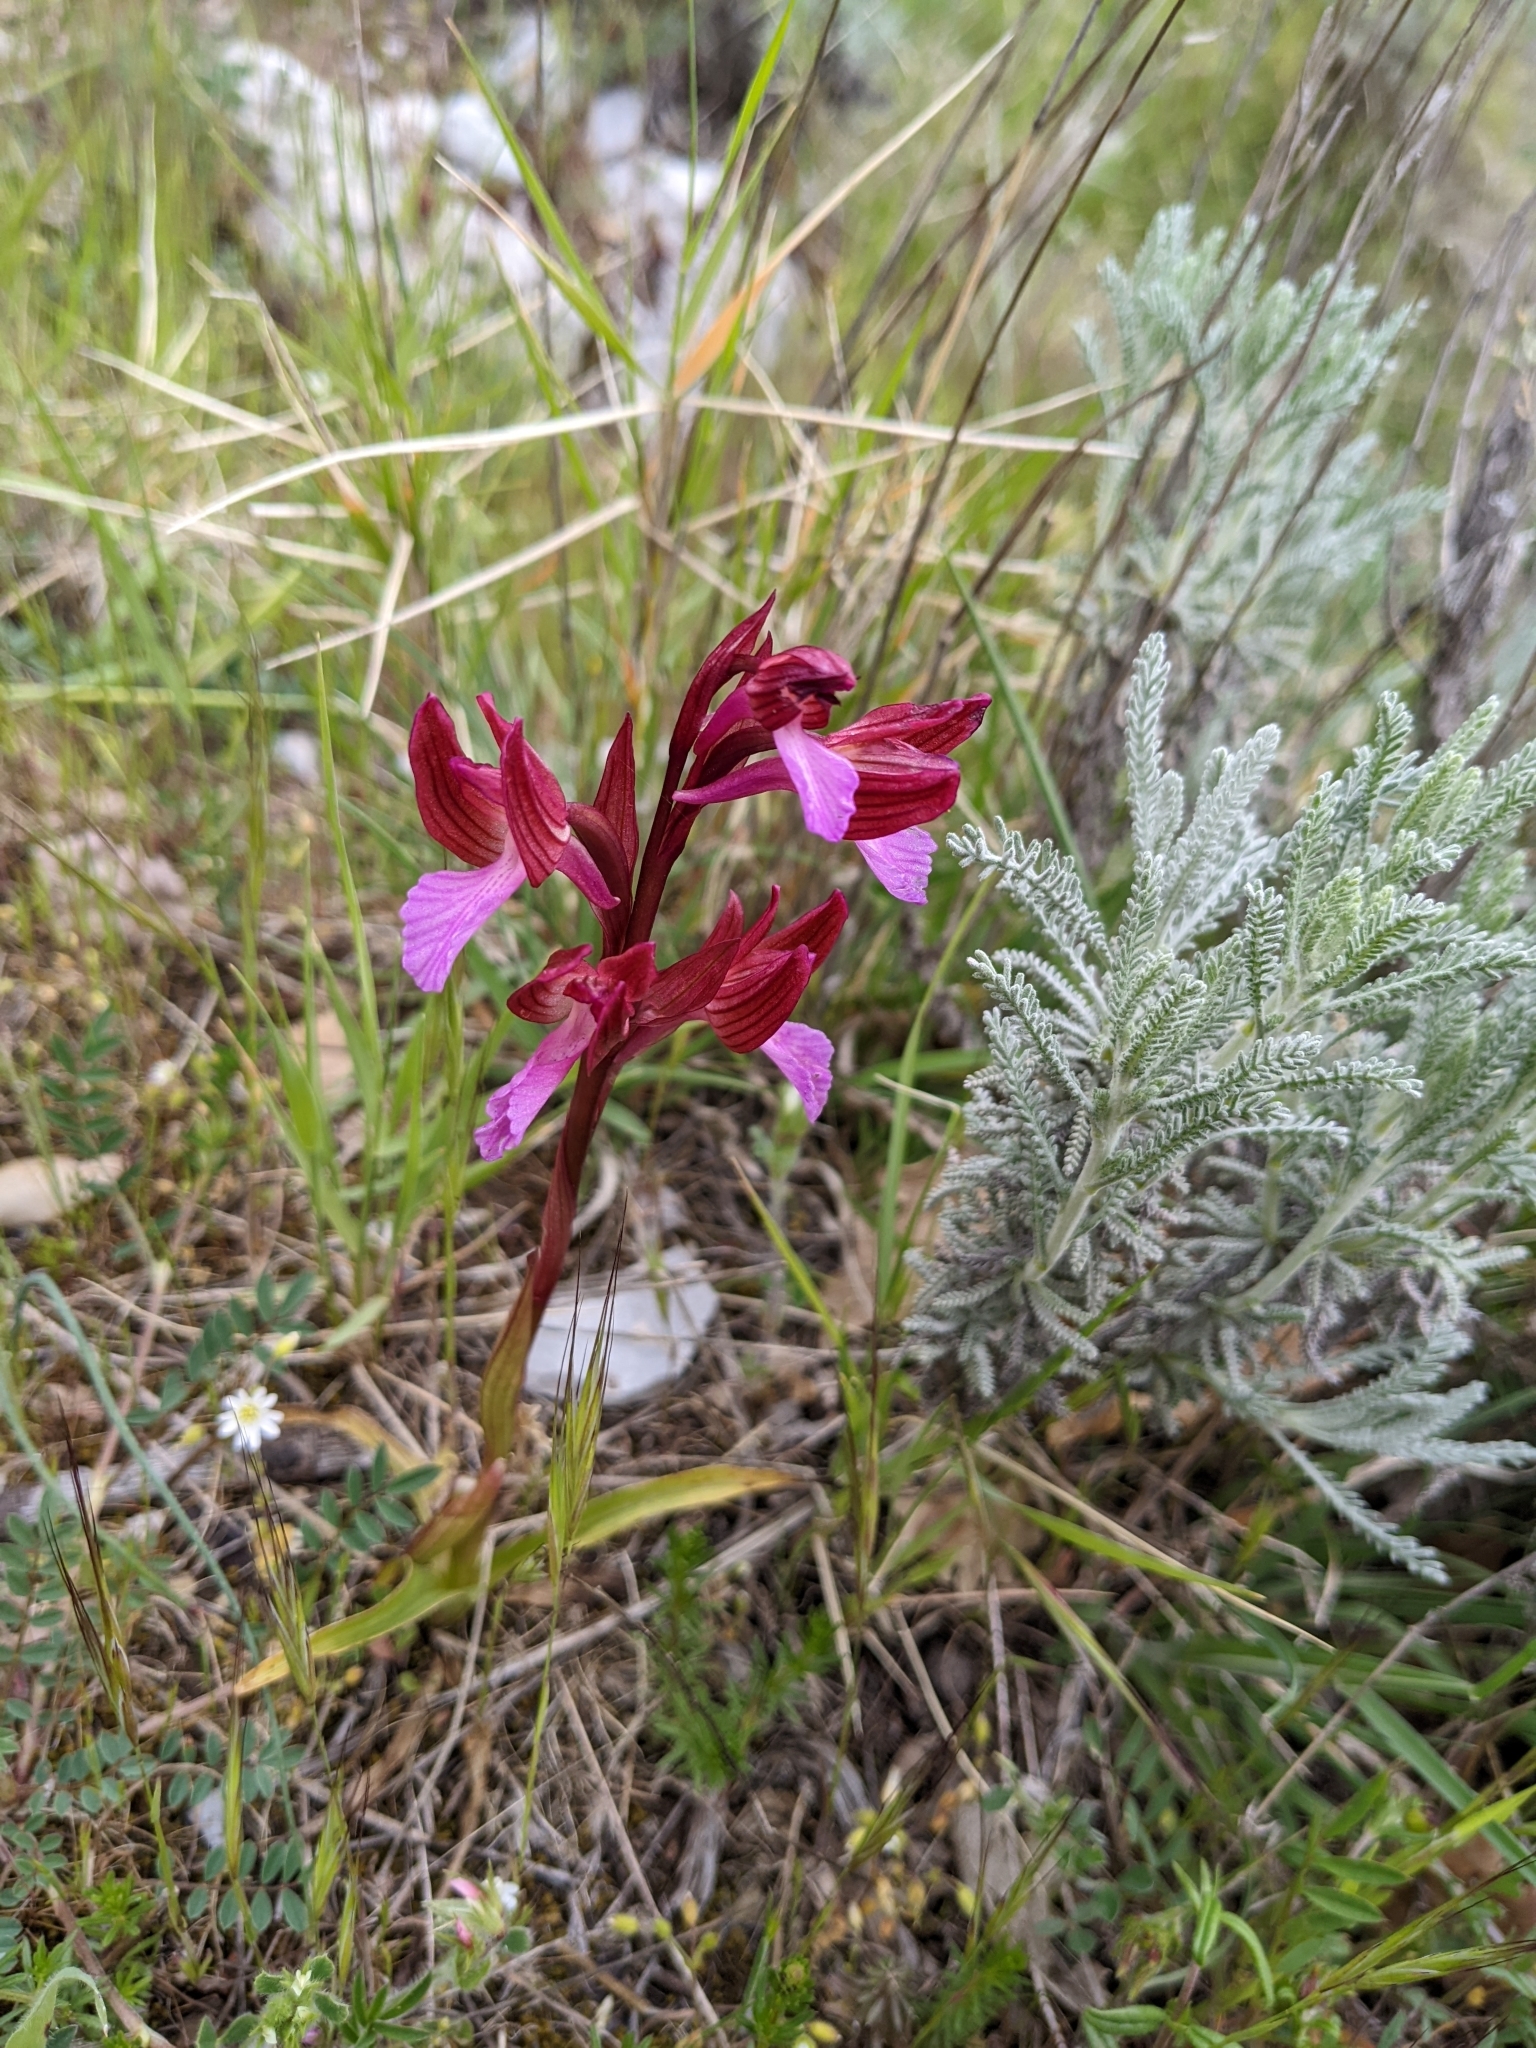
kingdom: Plantae
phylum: Tracheophyta
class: Liliopsida
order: Asparagales
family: Orchidaceae
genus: Anacamptis
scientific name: Anacamptis papilionacea
